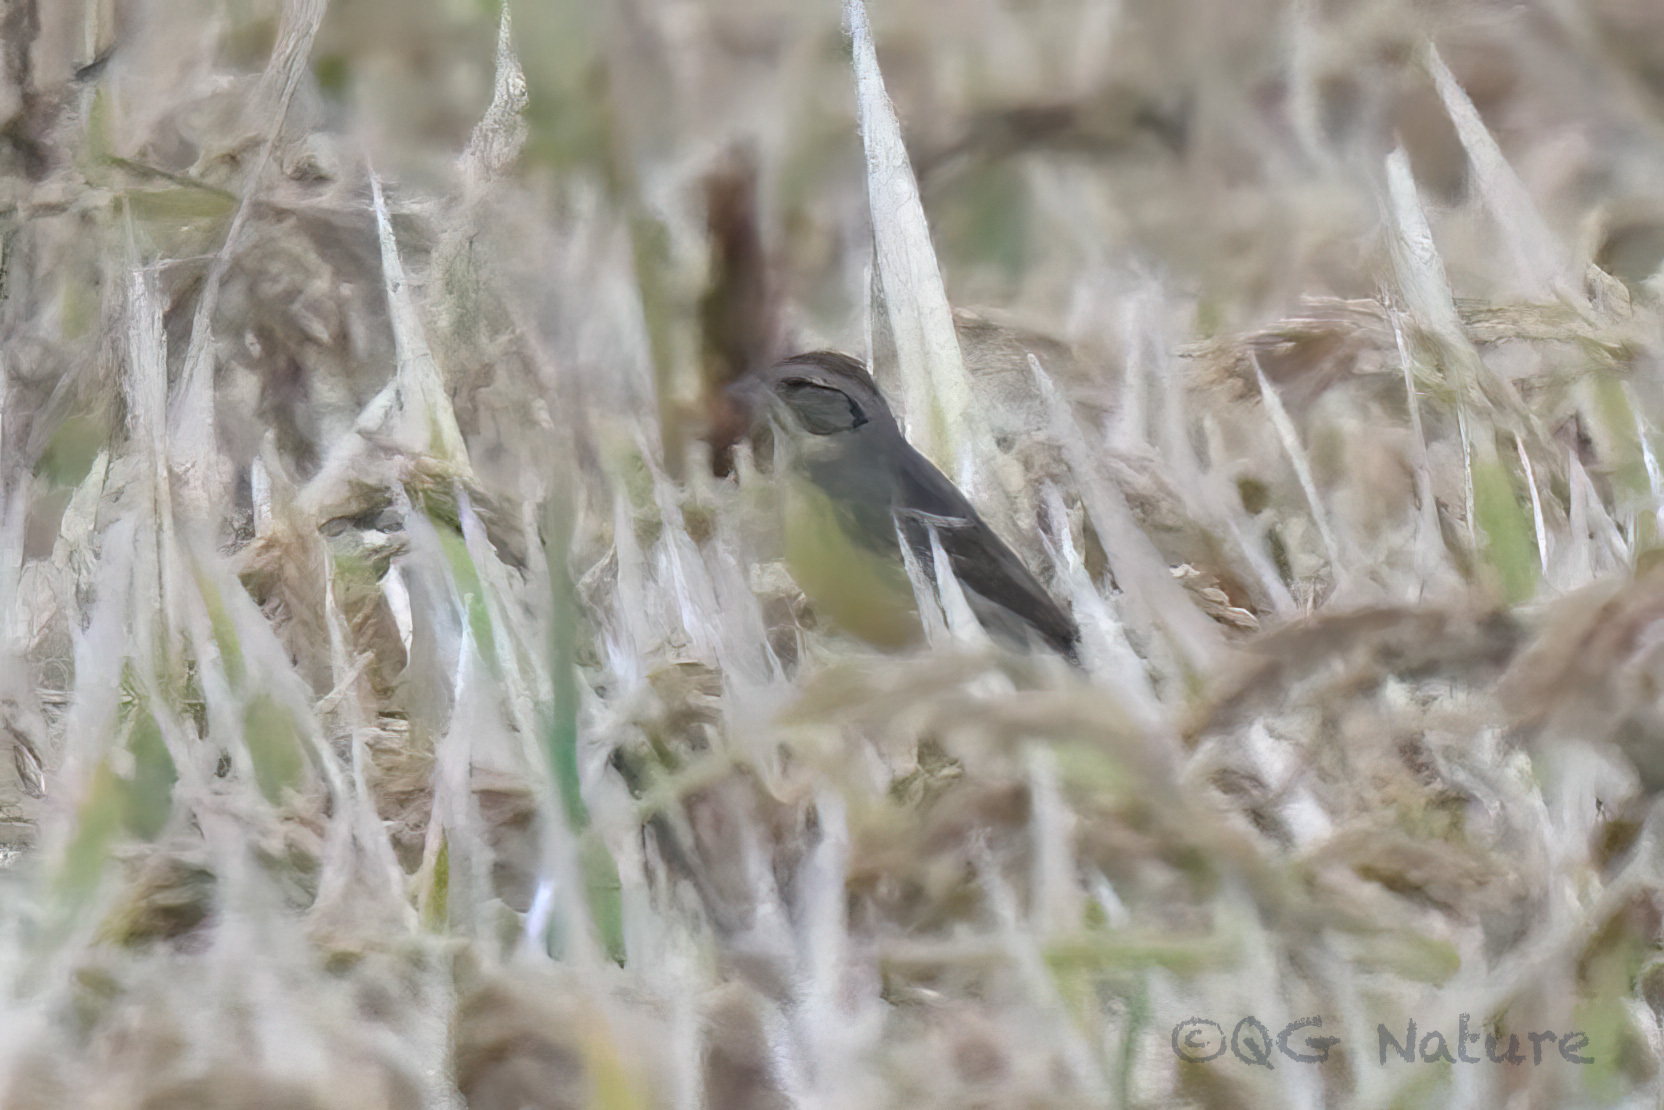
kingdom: Animalia
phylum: Chordata
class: Aves
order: Passeriformes
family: Emberizidae
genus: Emberiza
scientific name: Emberiza aureola
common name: Yellow-breasted bunting
